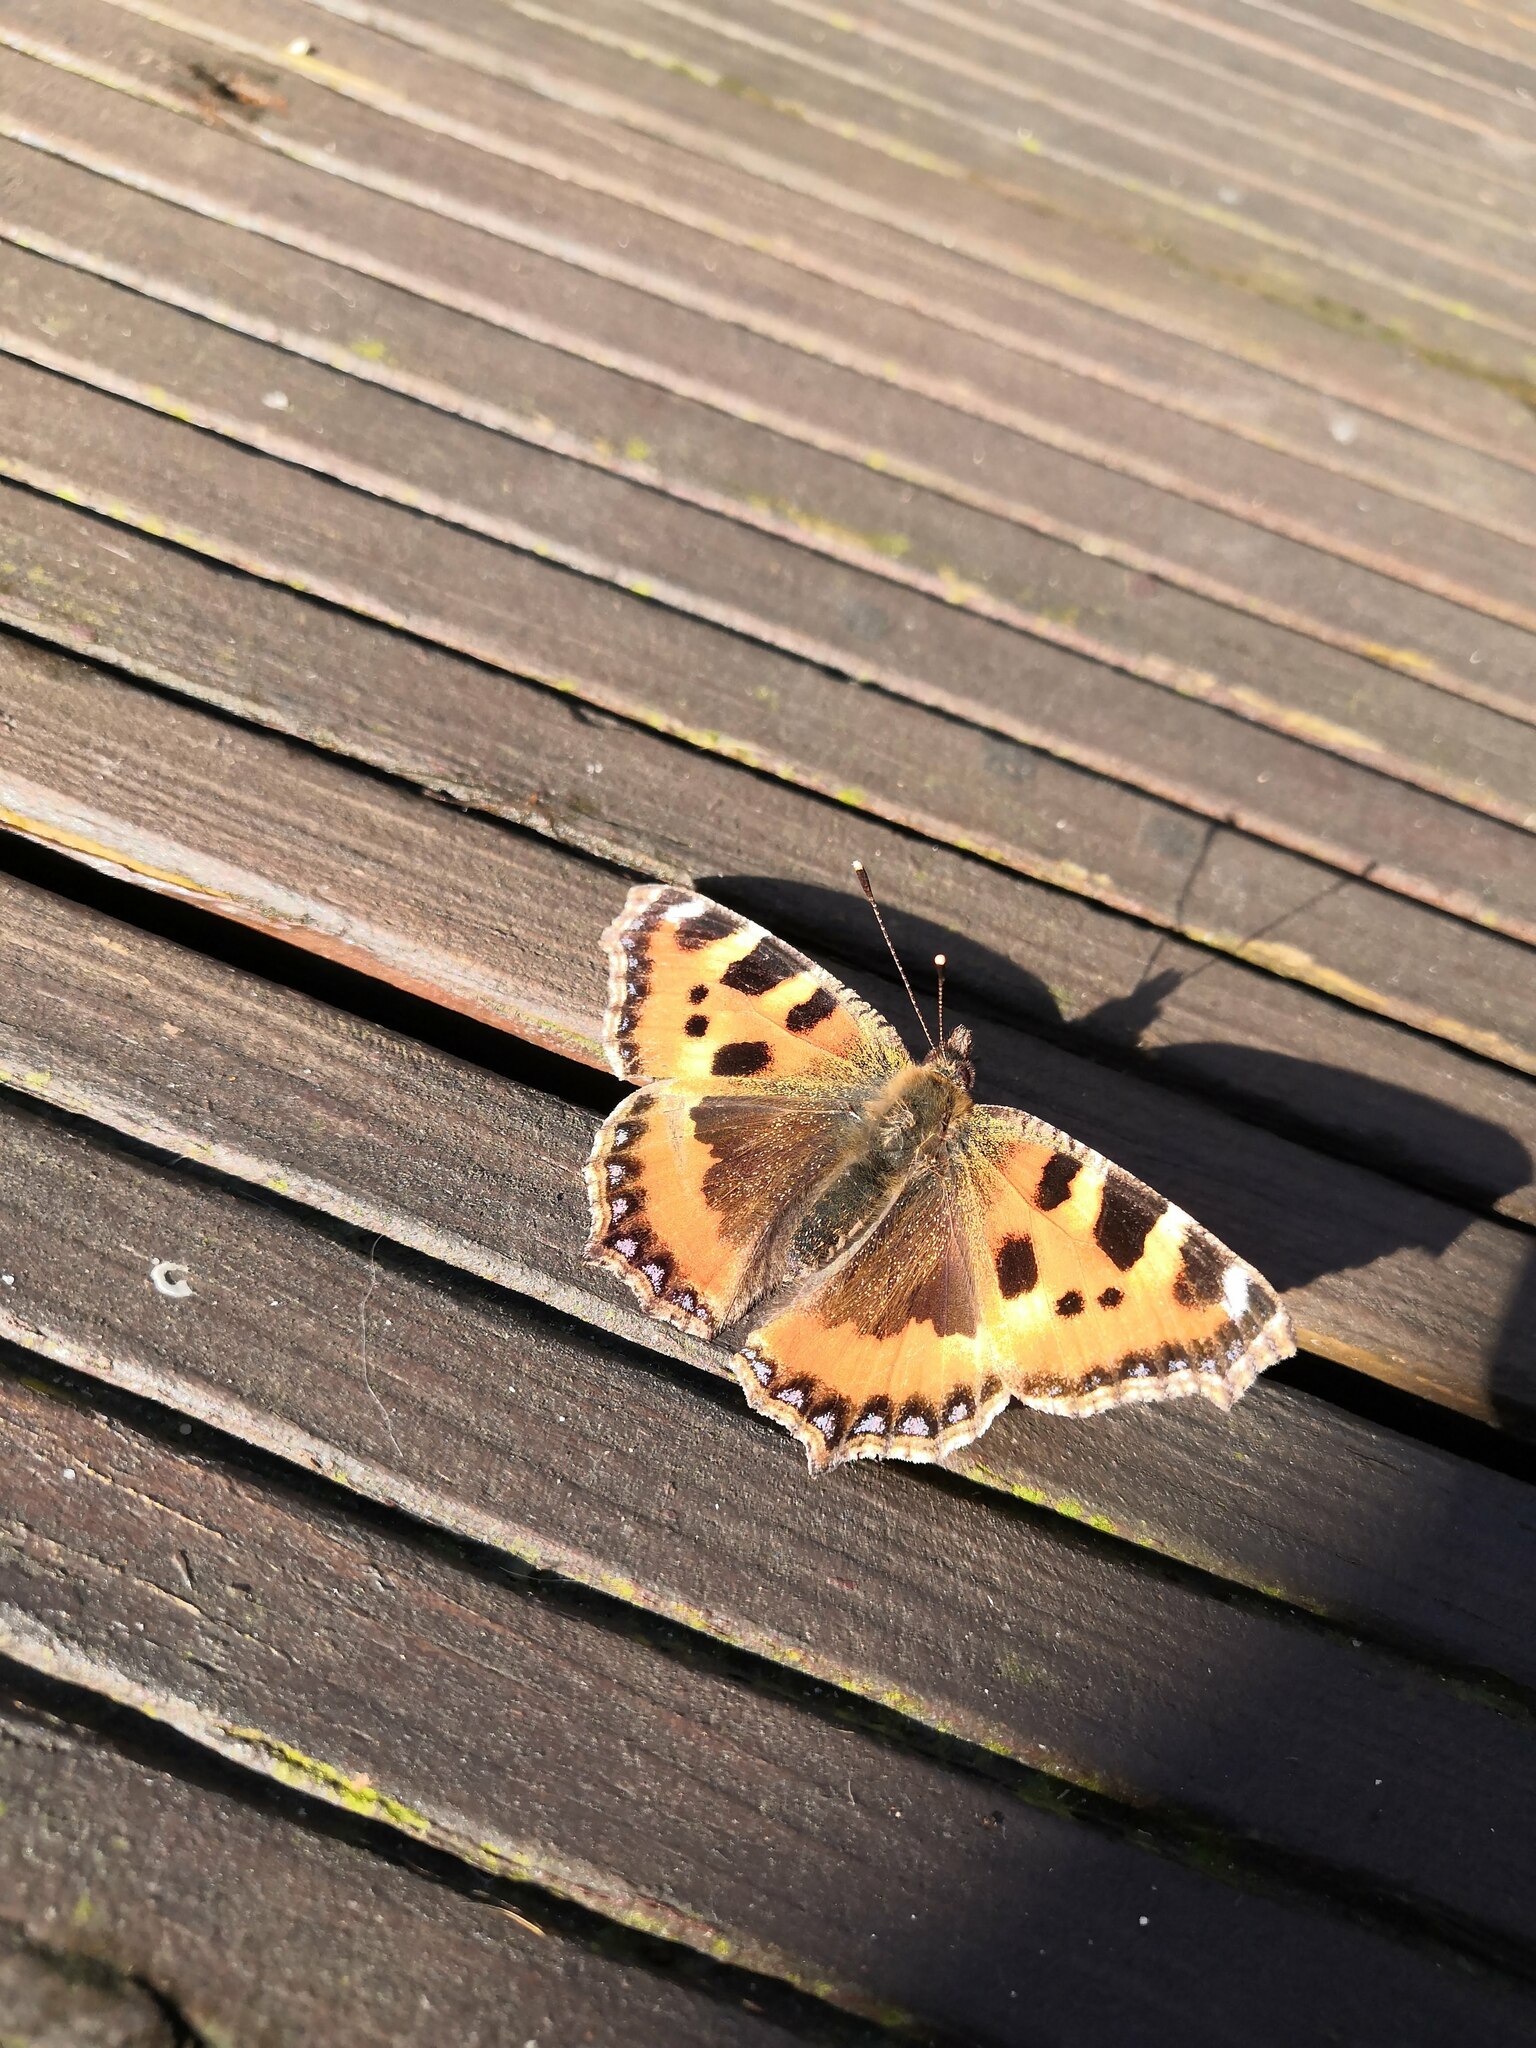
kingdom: Animalia
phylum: Arthropoda
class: Insecta
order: Lepidoptera
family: Nymphalidae
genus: Aglais
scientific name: Aglais urticae
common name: Small tortoiseshell
